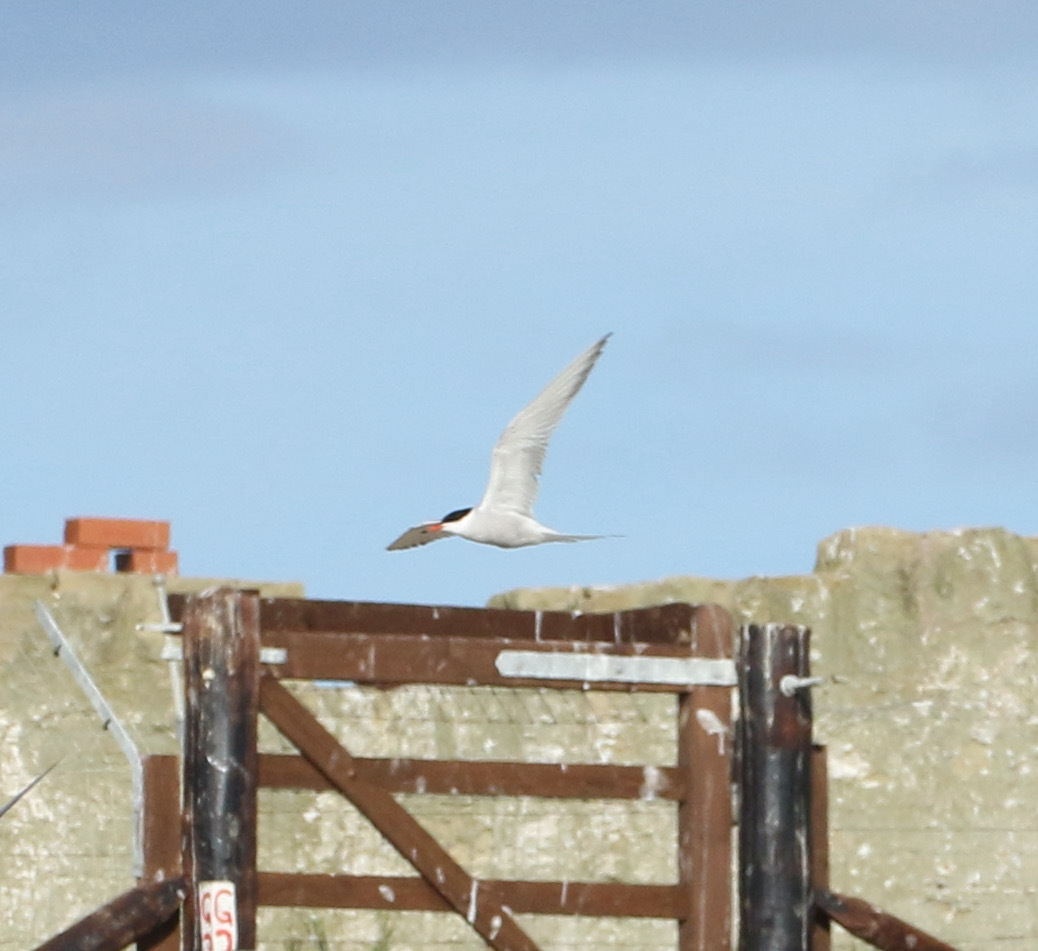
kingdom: Animalia
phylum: Chordata
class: Aves
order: Charadriiformes
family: Laridae
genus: Sterna
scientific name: Sterna hirundo
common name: Common tern
